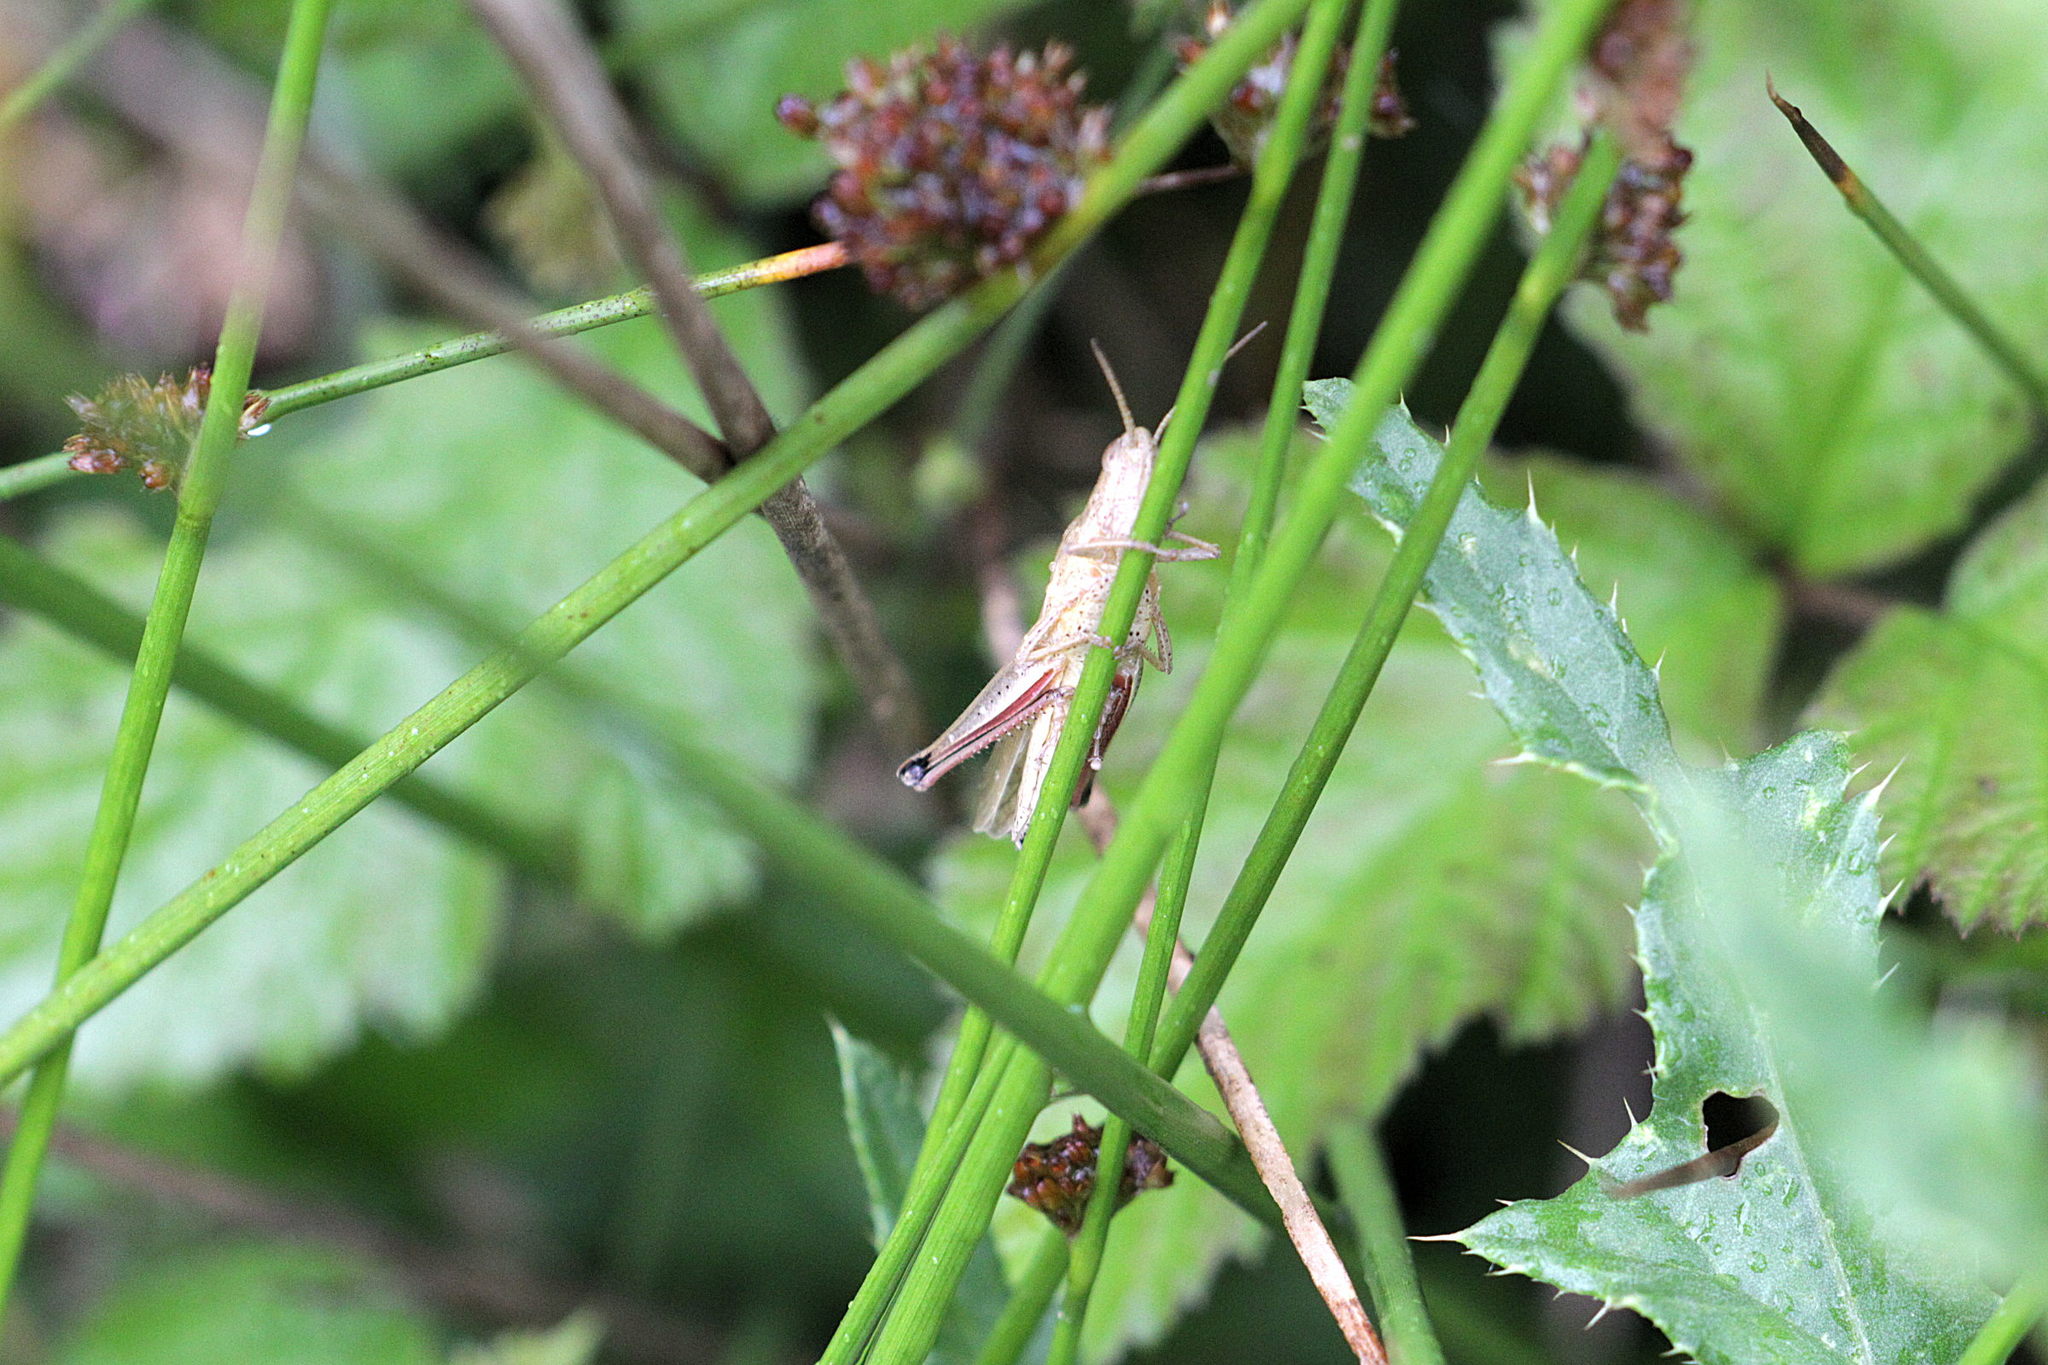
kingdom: Animalia
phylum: Arthropoda
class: Insecta
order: Orthoptera
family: Acrididae
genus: Chrysochraon
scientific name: Chrysochraon dispar
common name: Large gold grasshopper
